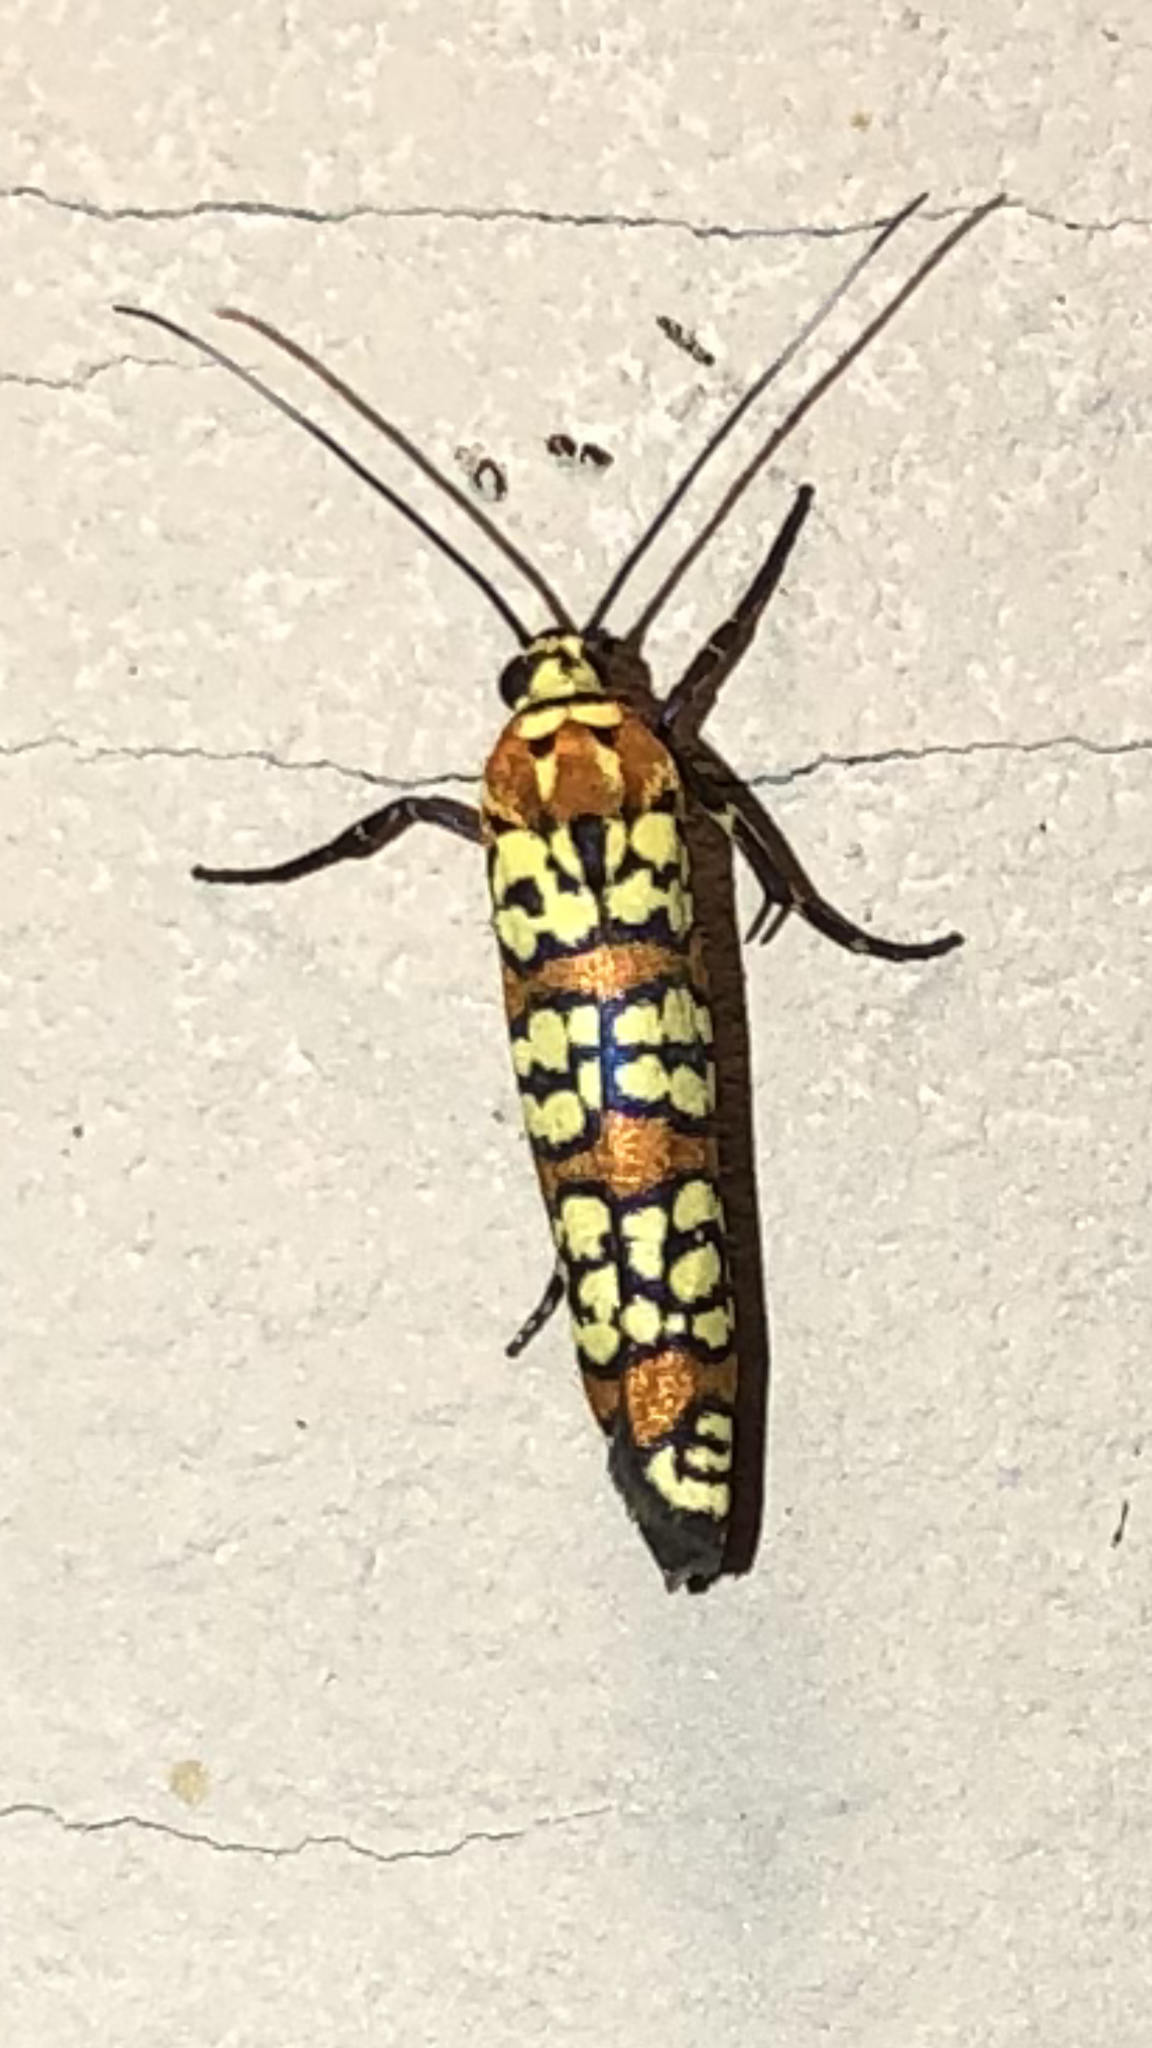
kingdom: Animalia
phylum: Arthropoda
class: Insecta
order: Lepidoptera
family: Attevidae
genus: Atteva
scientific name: Atteva punctella
